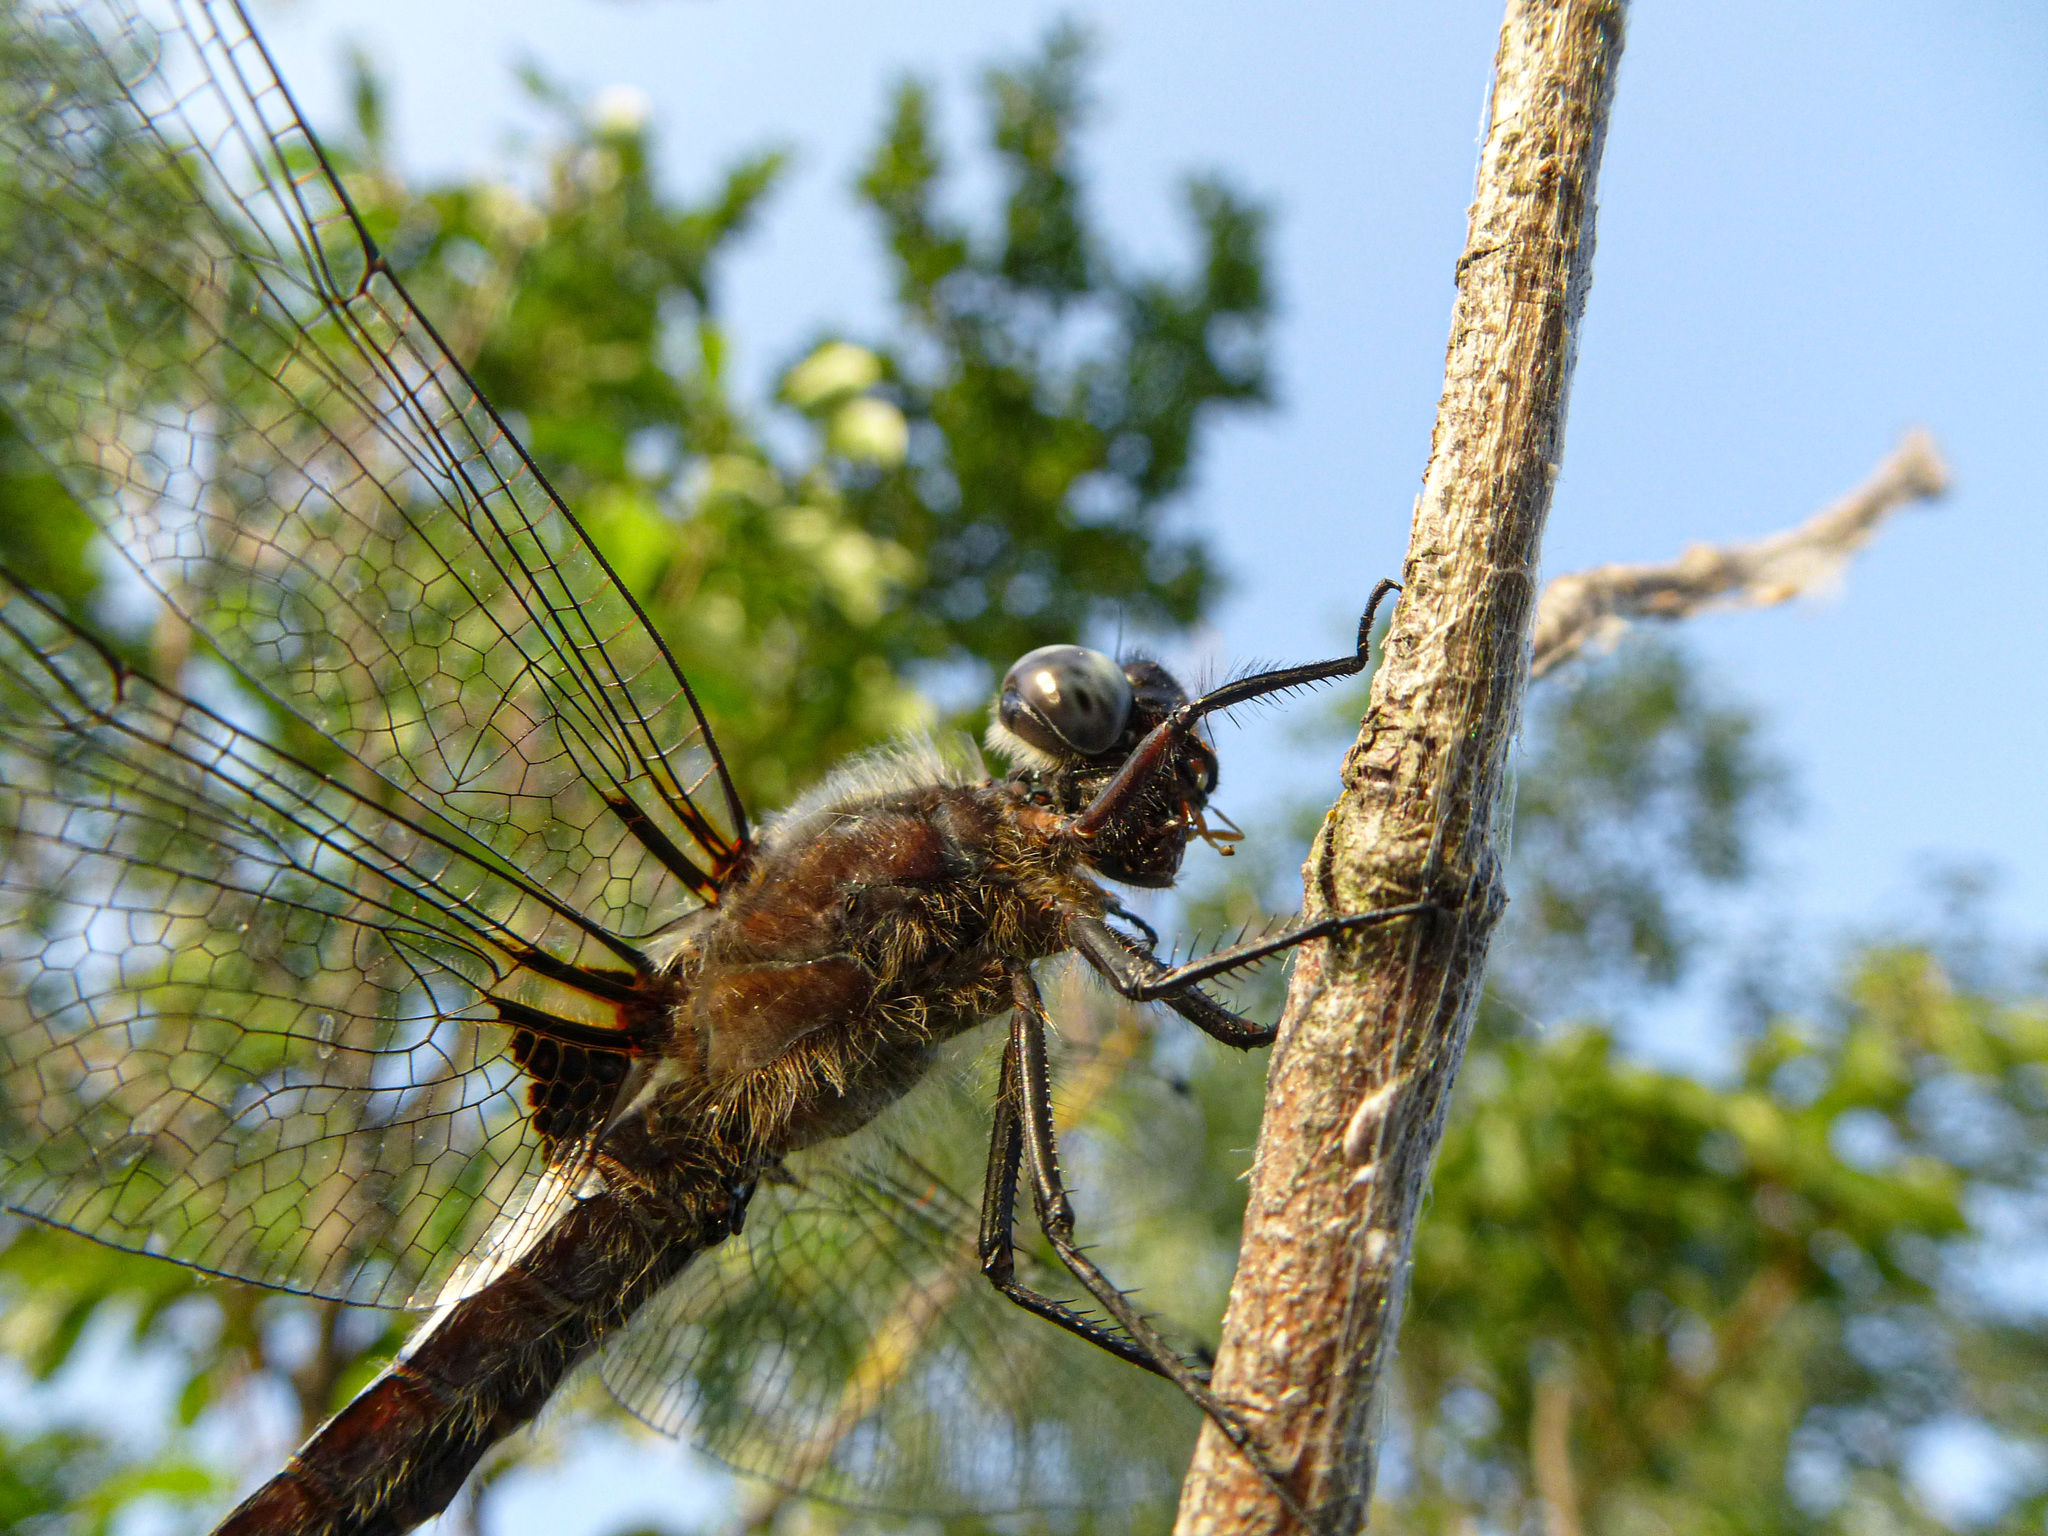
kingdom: Animalia
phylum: Arthropoda
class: Insecta
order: Odonata
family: Libellulidae
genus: Libellula
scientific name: Libellula fulva
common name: Blue chaser
